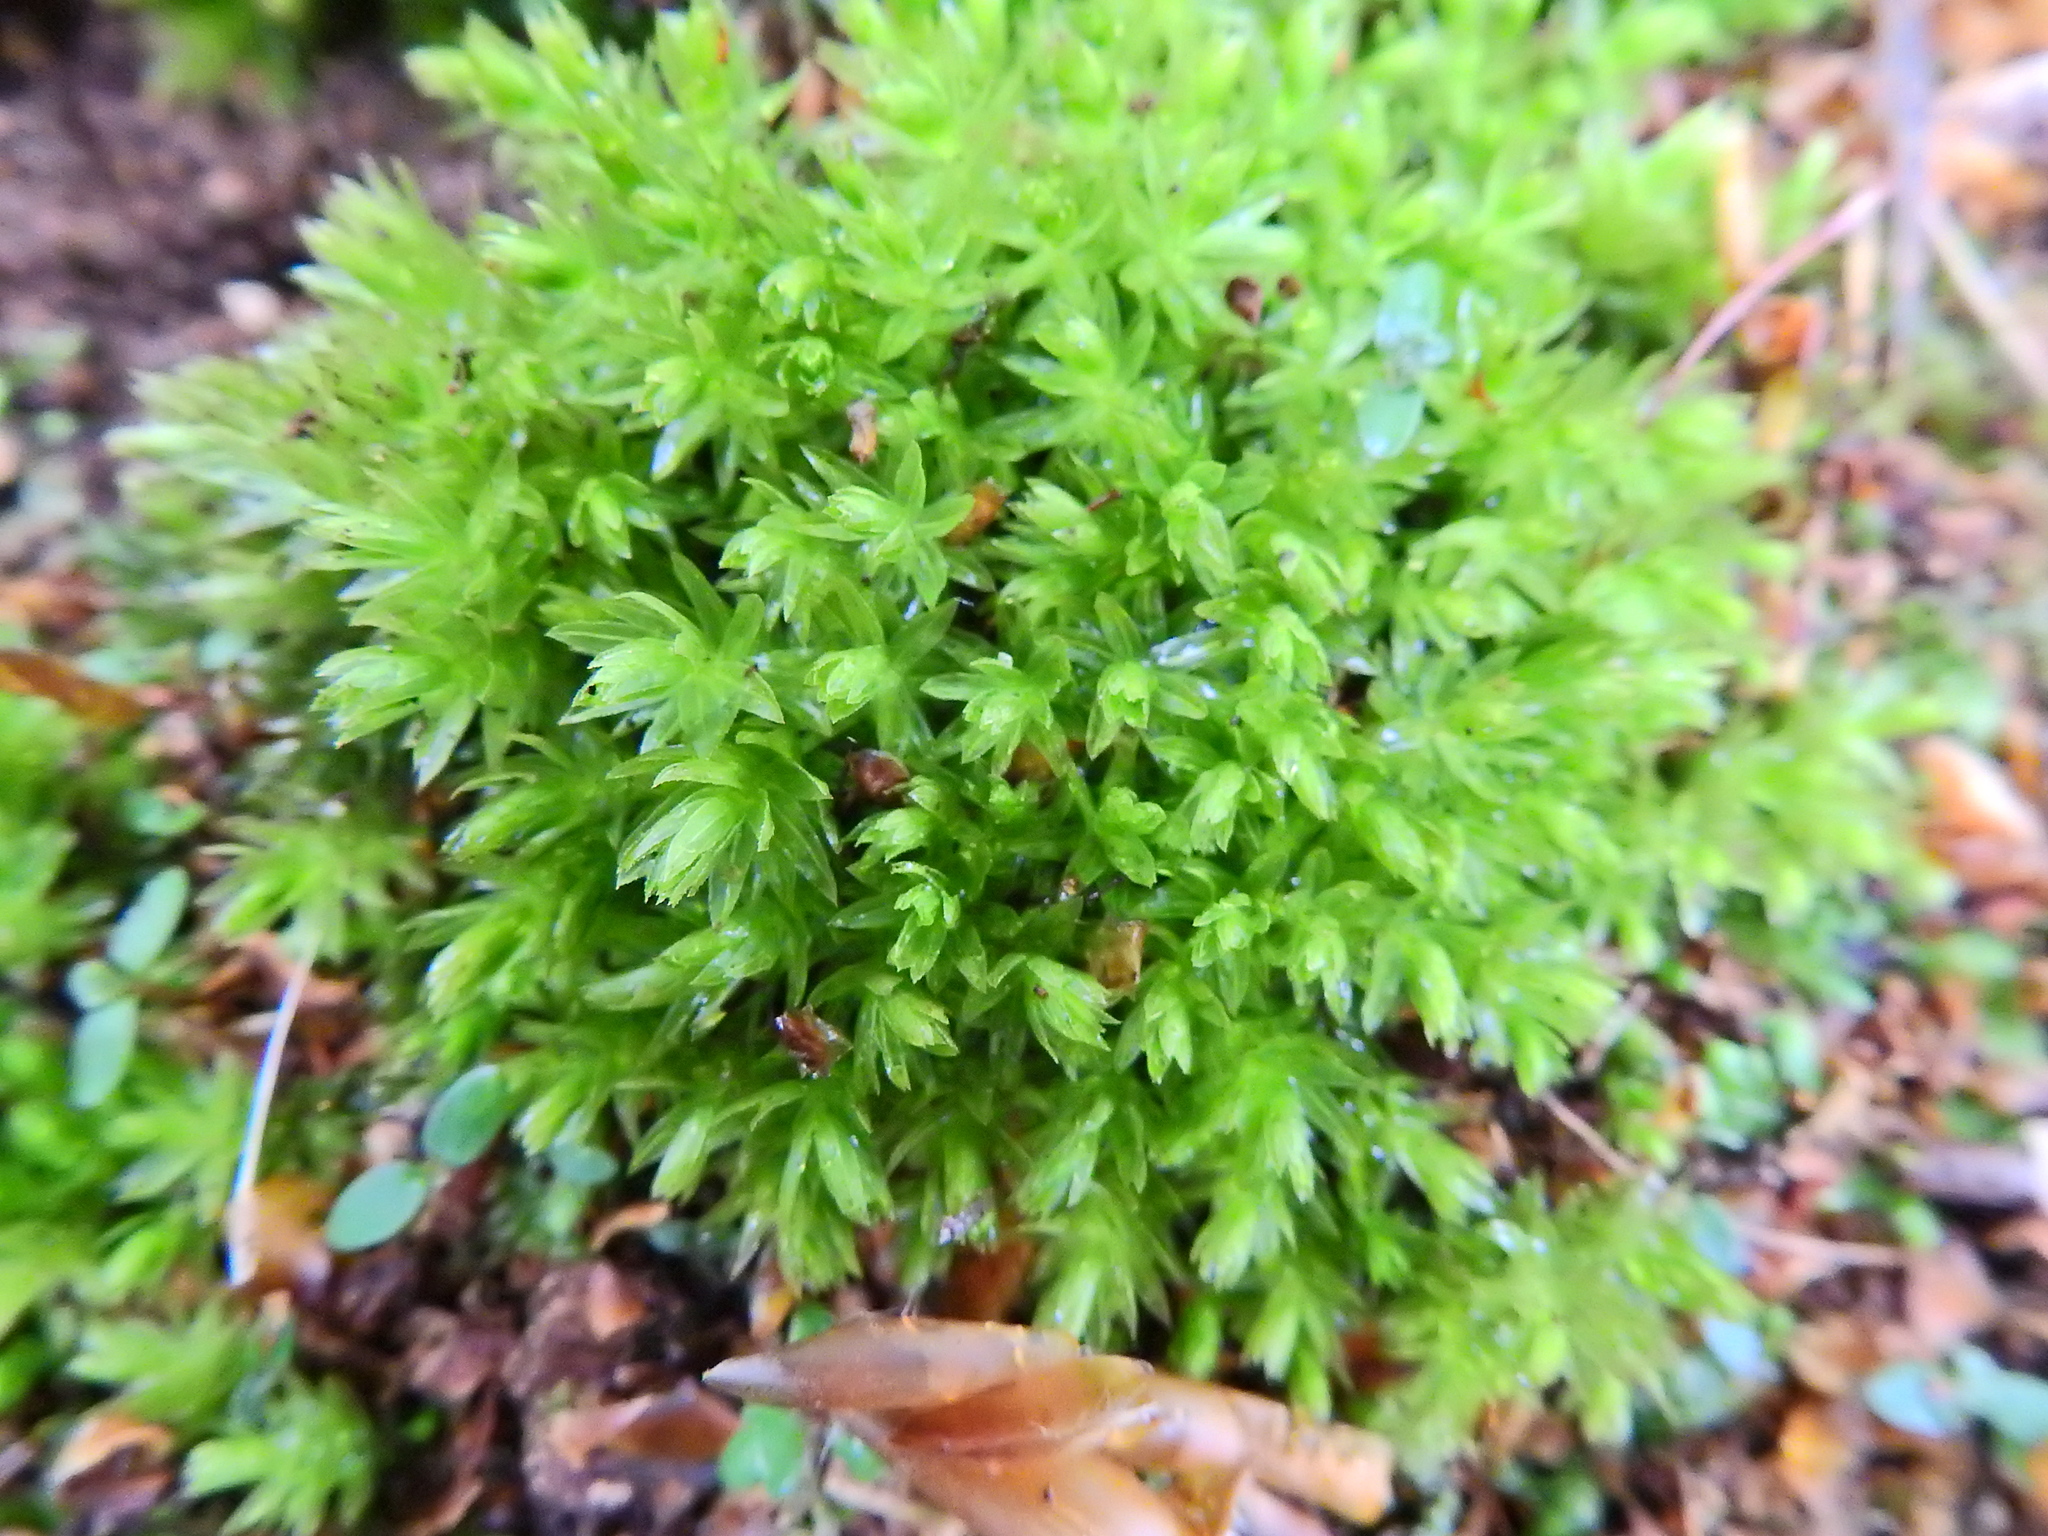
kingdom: Plantae
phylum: Bryophyta
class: Bryopsida
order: Bryales
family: Mniaceae
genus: Mnium
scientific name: Mnium hornum
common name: Swan's-neck leafy moss
